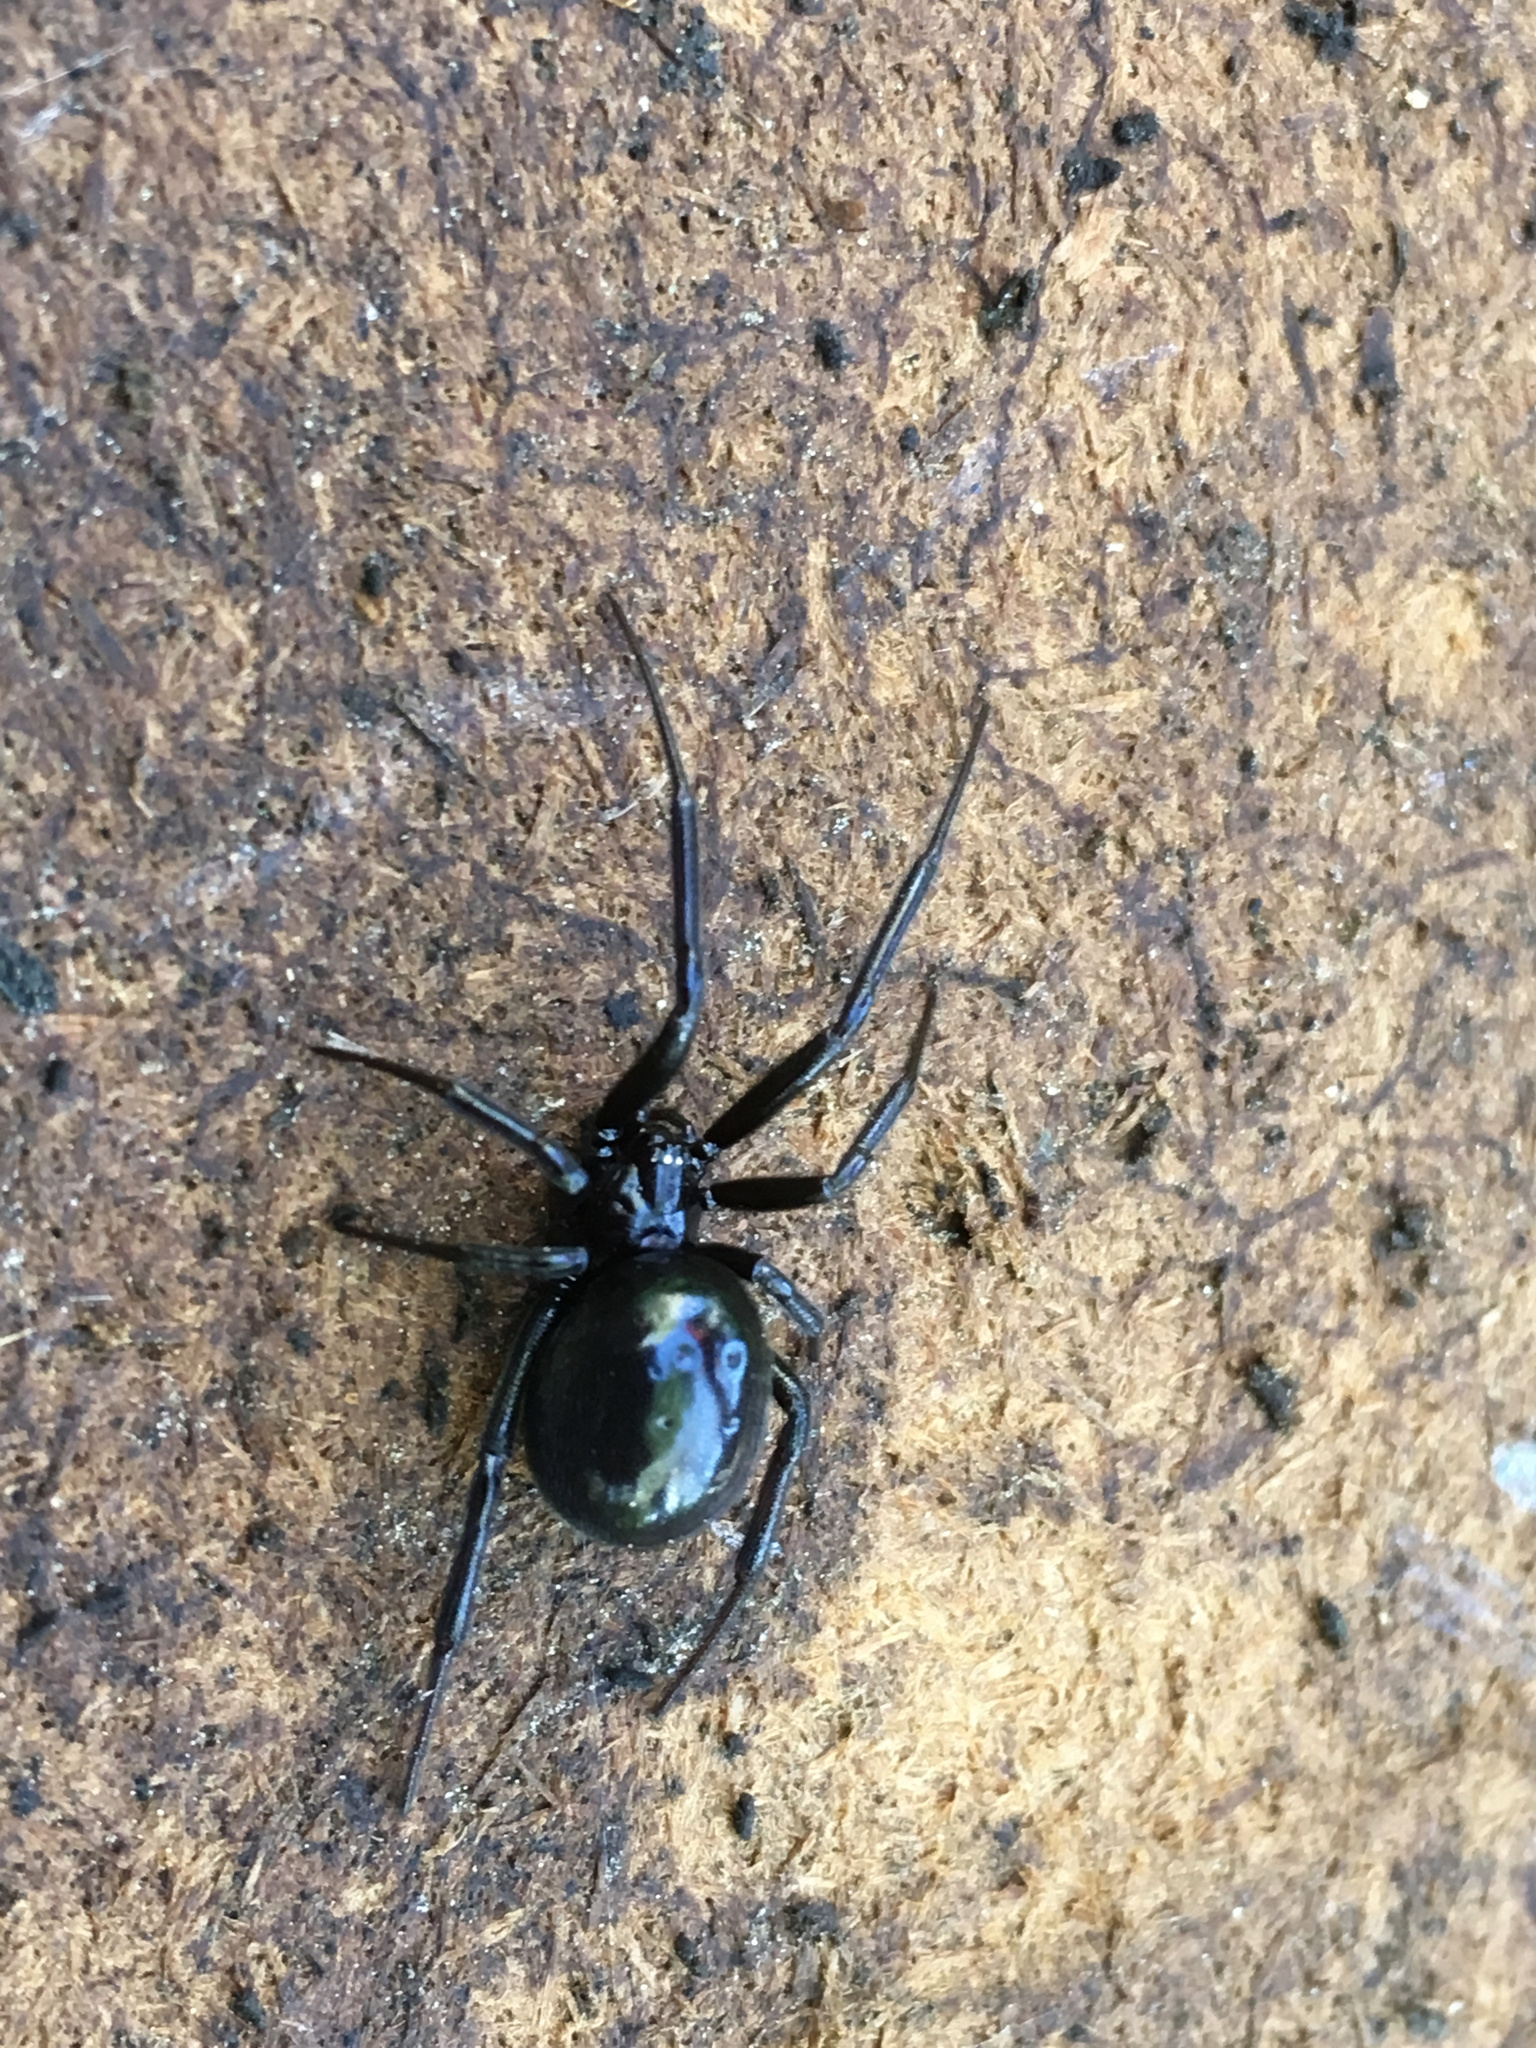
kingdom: Animalia
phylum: Arthropoda
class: Arachnida
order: Araneae
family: Theridiidae
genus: Steatoda
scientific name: Steatoda capensis
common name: Cobweb weaver
